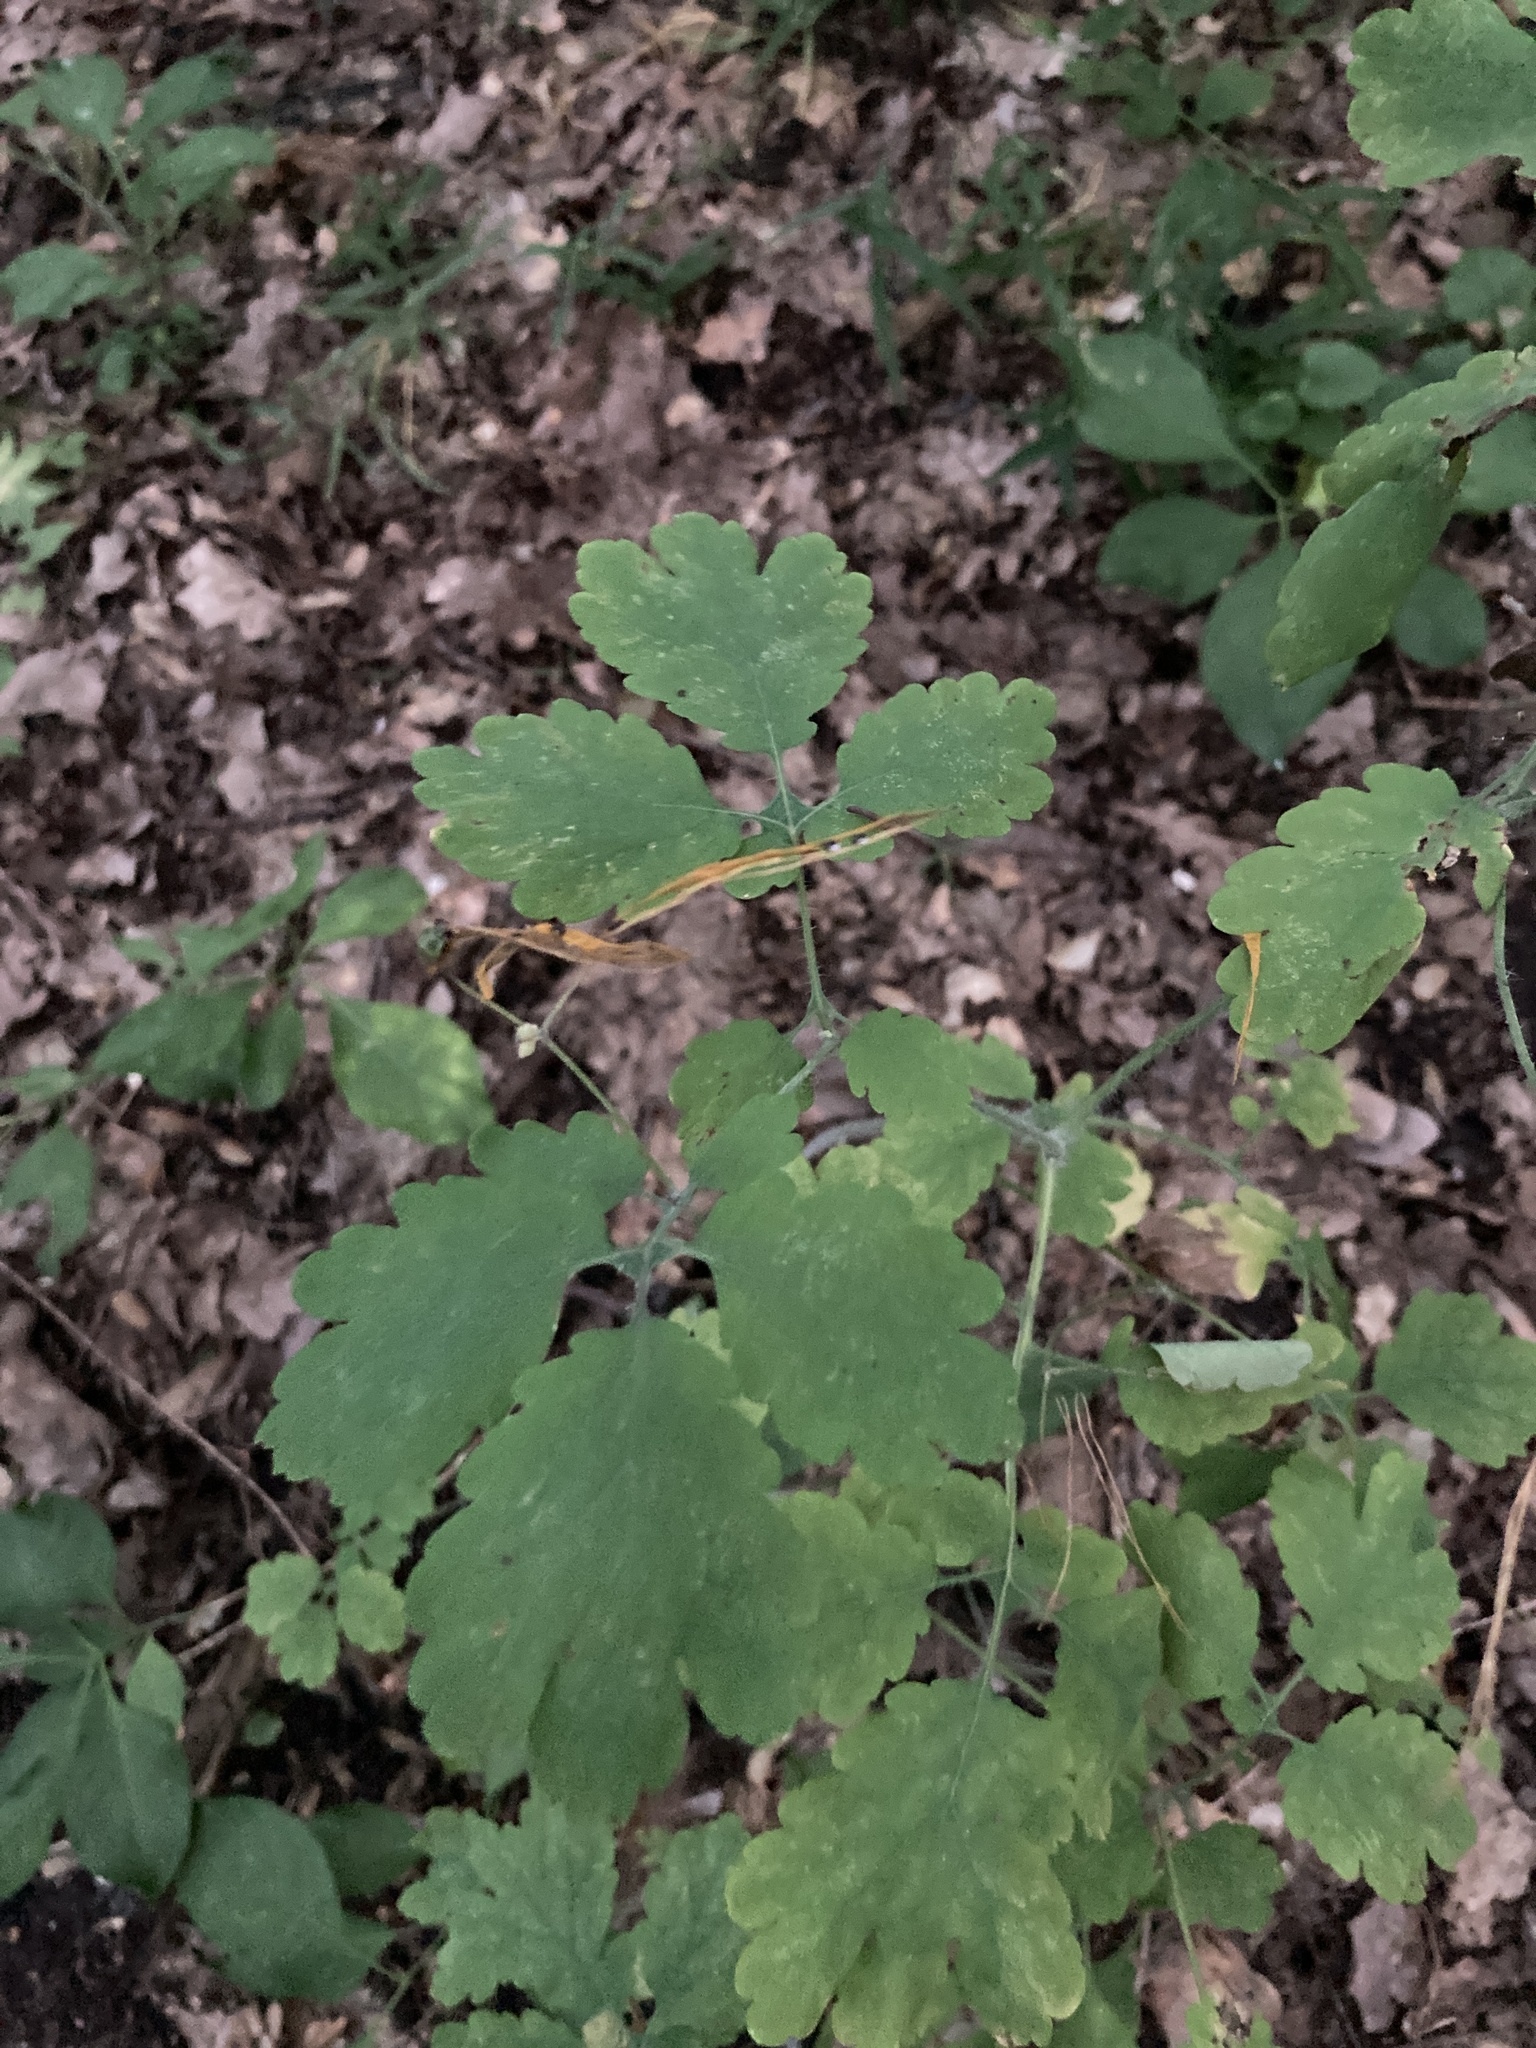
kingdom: Plantae
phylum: Tracheophyta
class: Magnoliopsida
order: Ranunculales
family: Papaveraceae
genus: Chelidonium
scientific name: Chelidonium majus
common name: Greater celandine
